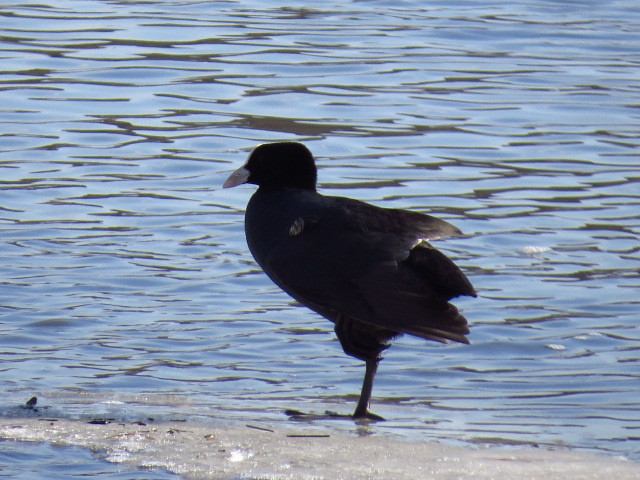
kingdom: Animalia
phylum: Chordata
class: Aves
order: Gruiformes
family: Rallidae
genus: Fulica
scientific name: Fulica atra
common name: Eurasian coot
